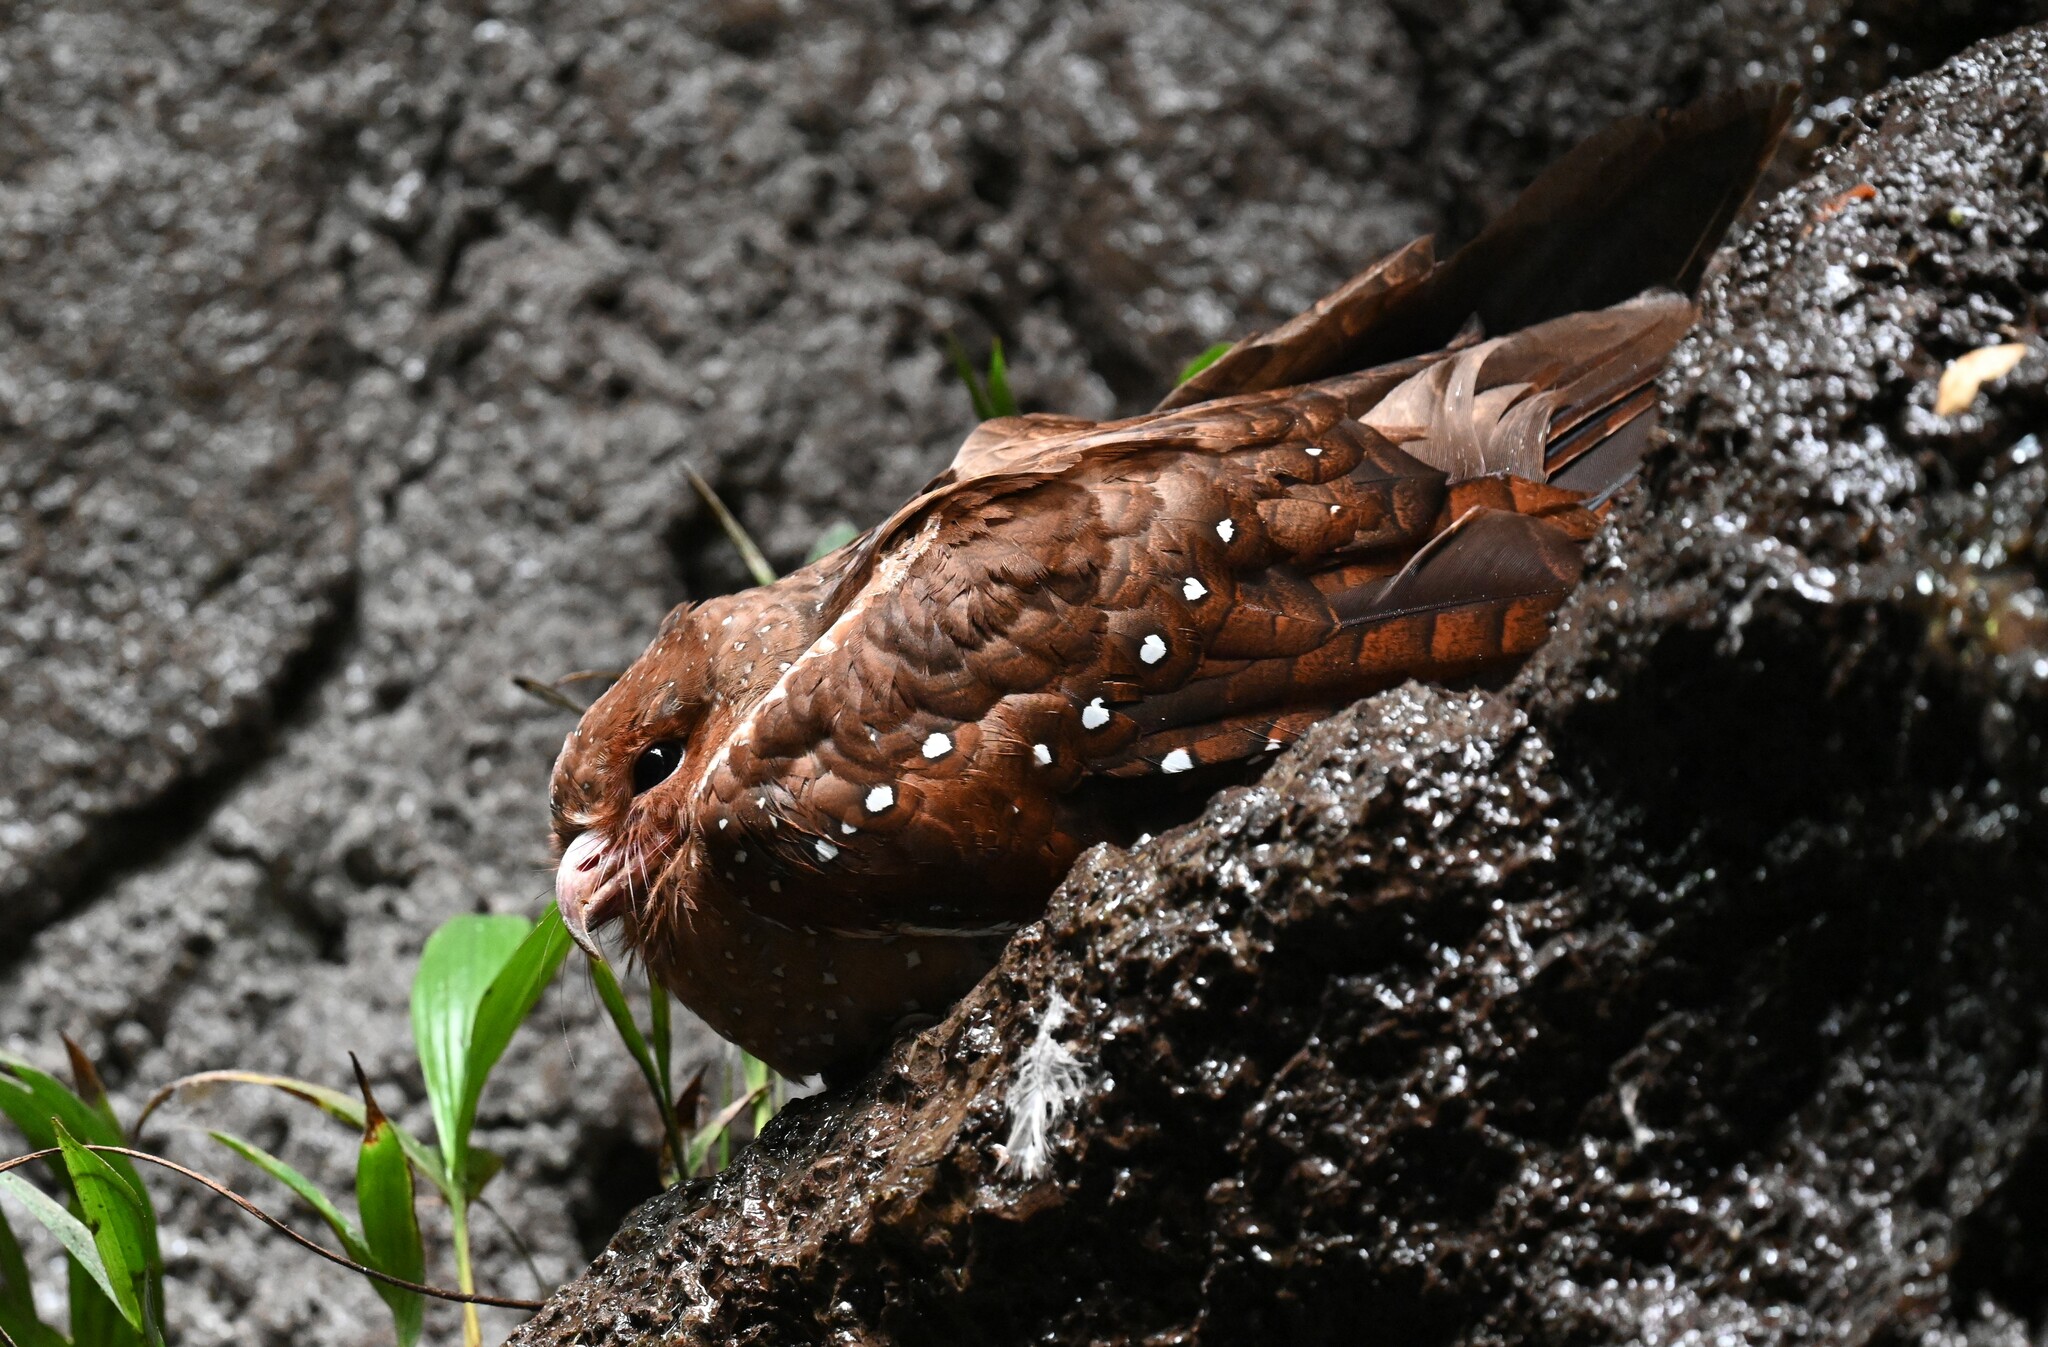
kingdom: Animalia
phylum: Chordata
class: Aves
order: Steatornithiformes
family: Steatornithidae
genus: Steatornis
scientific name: Steatornis caripensis
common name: Oilbird
